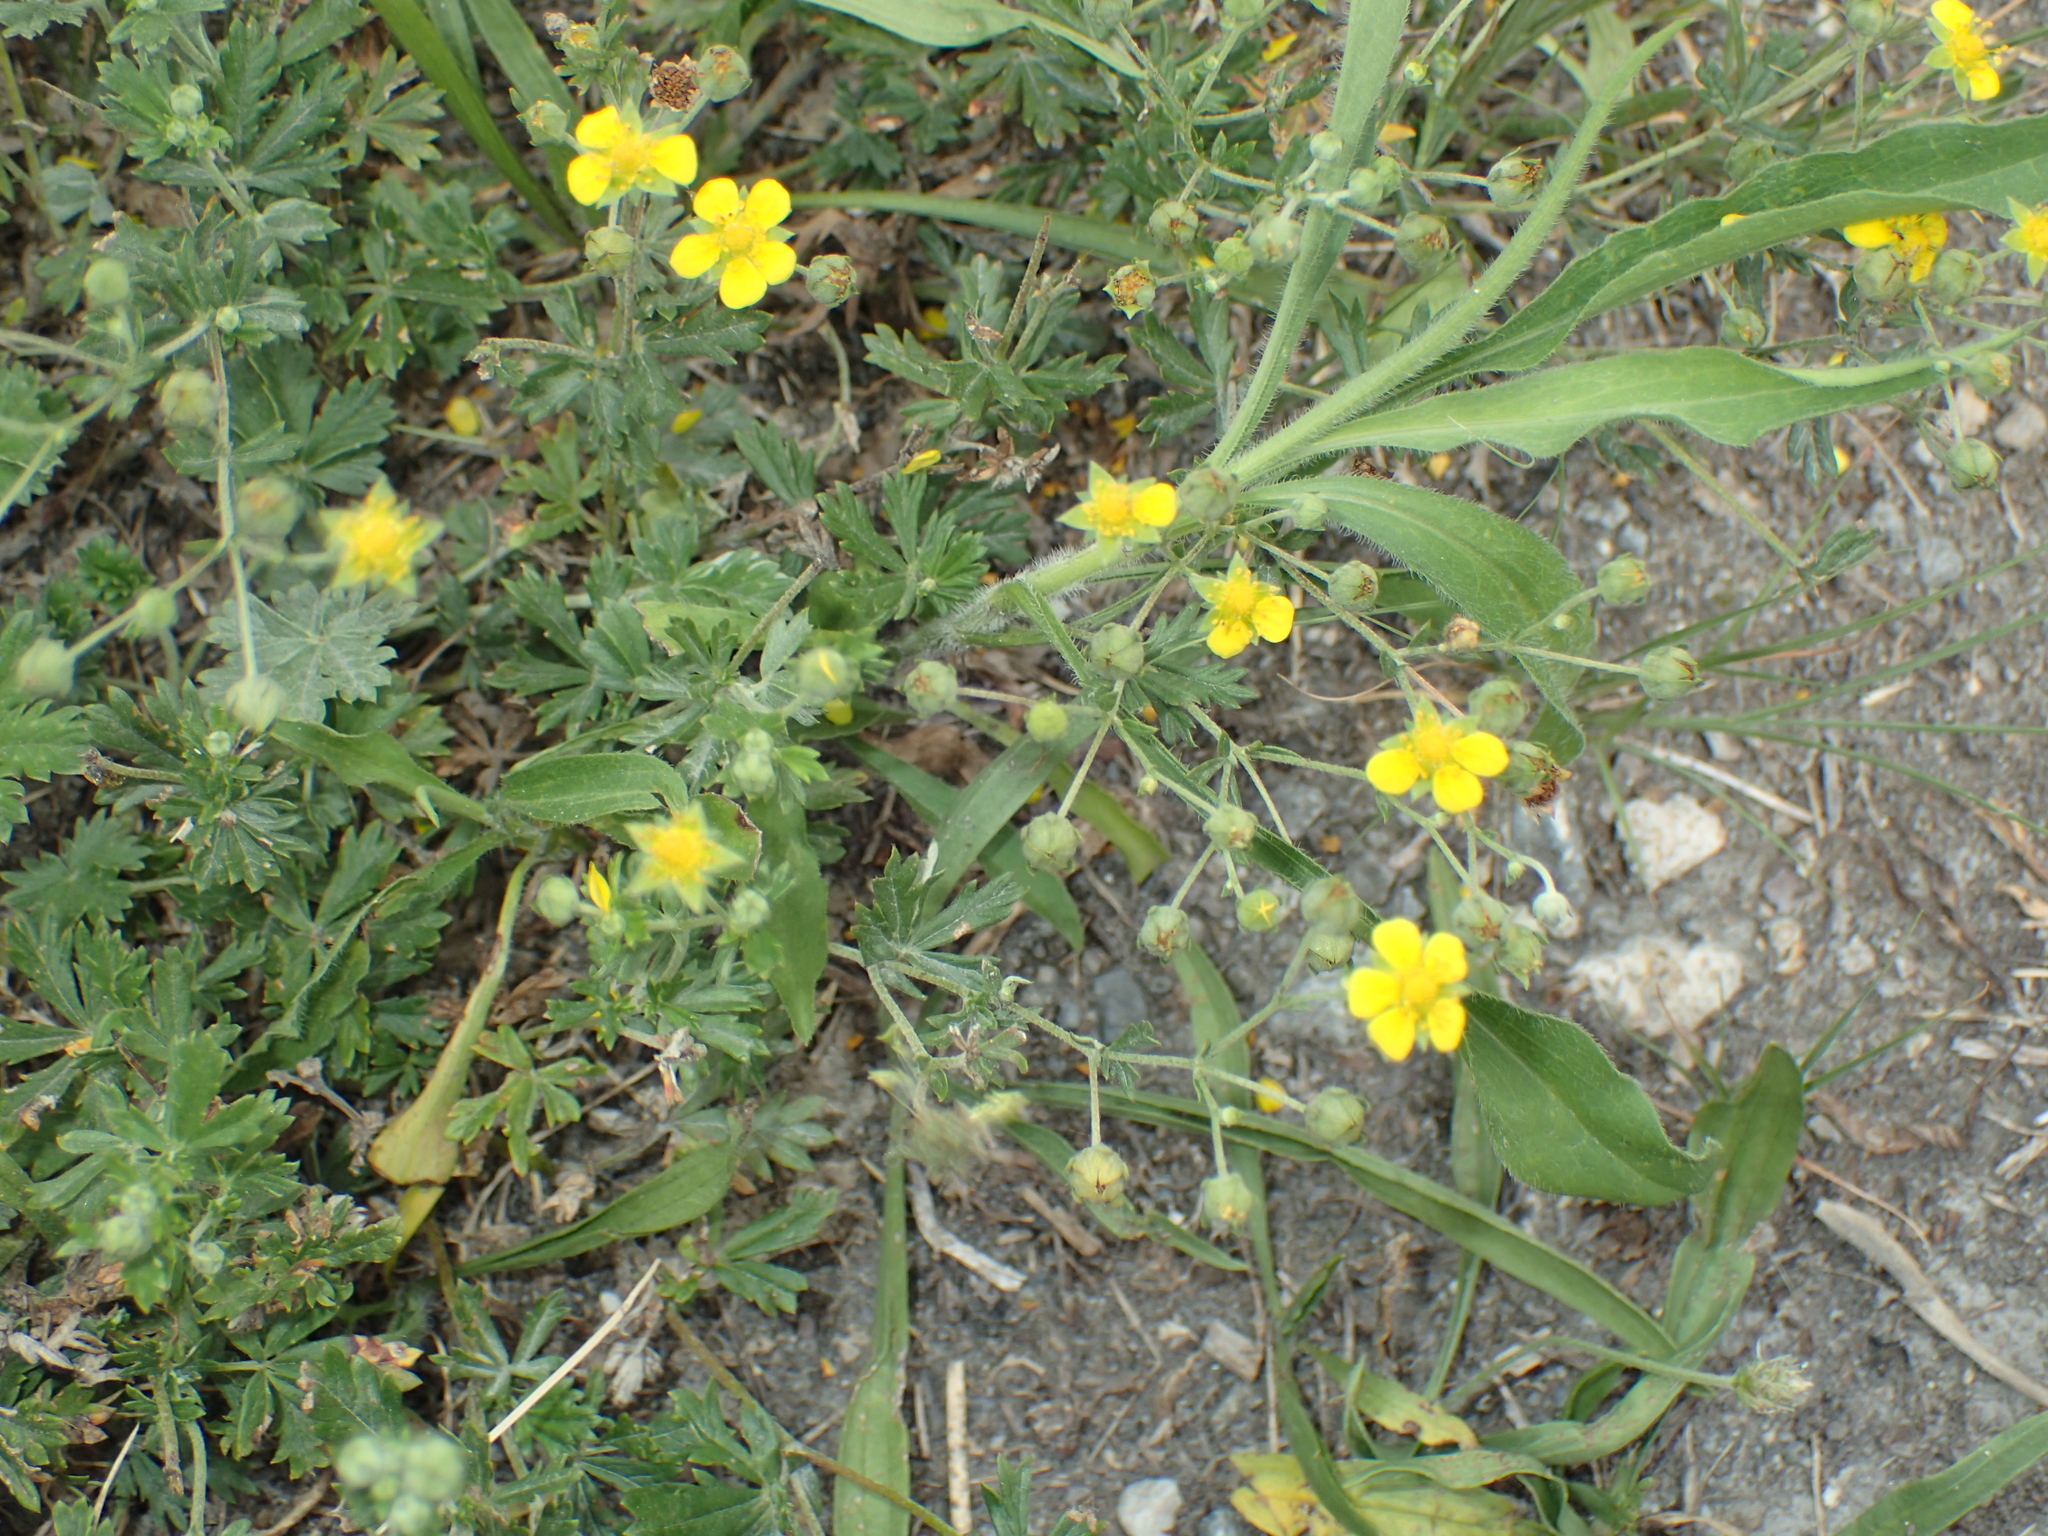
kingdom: Plantae
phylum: Tracheophyta
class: Magnoliopsida
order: Rosales
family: Rosaceae
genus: Potentilla
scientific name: Potentilla argentea
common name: Hoary cinquefoil
